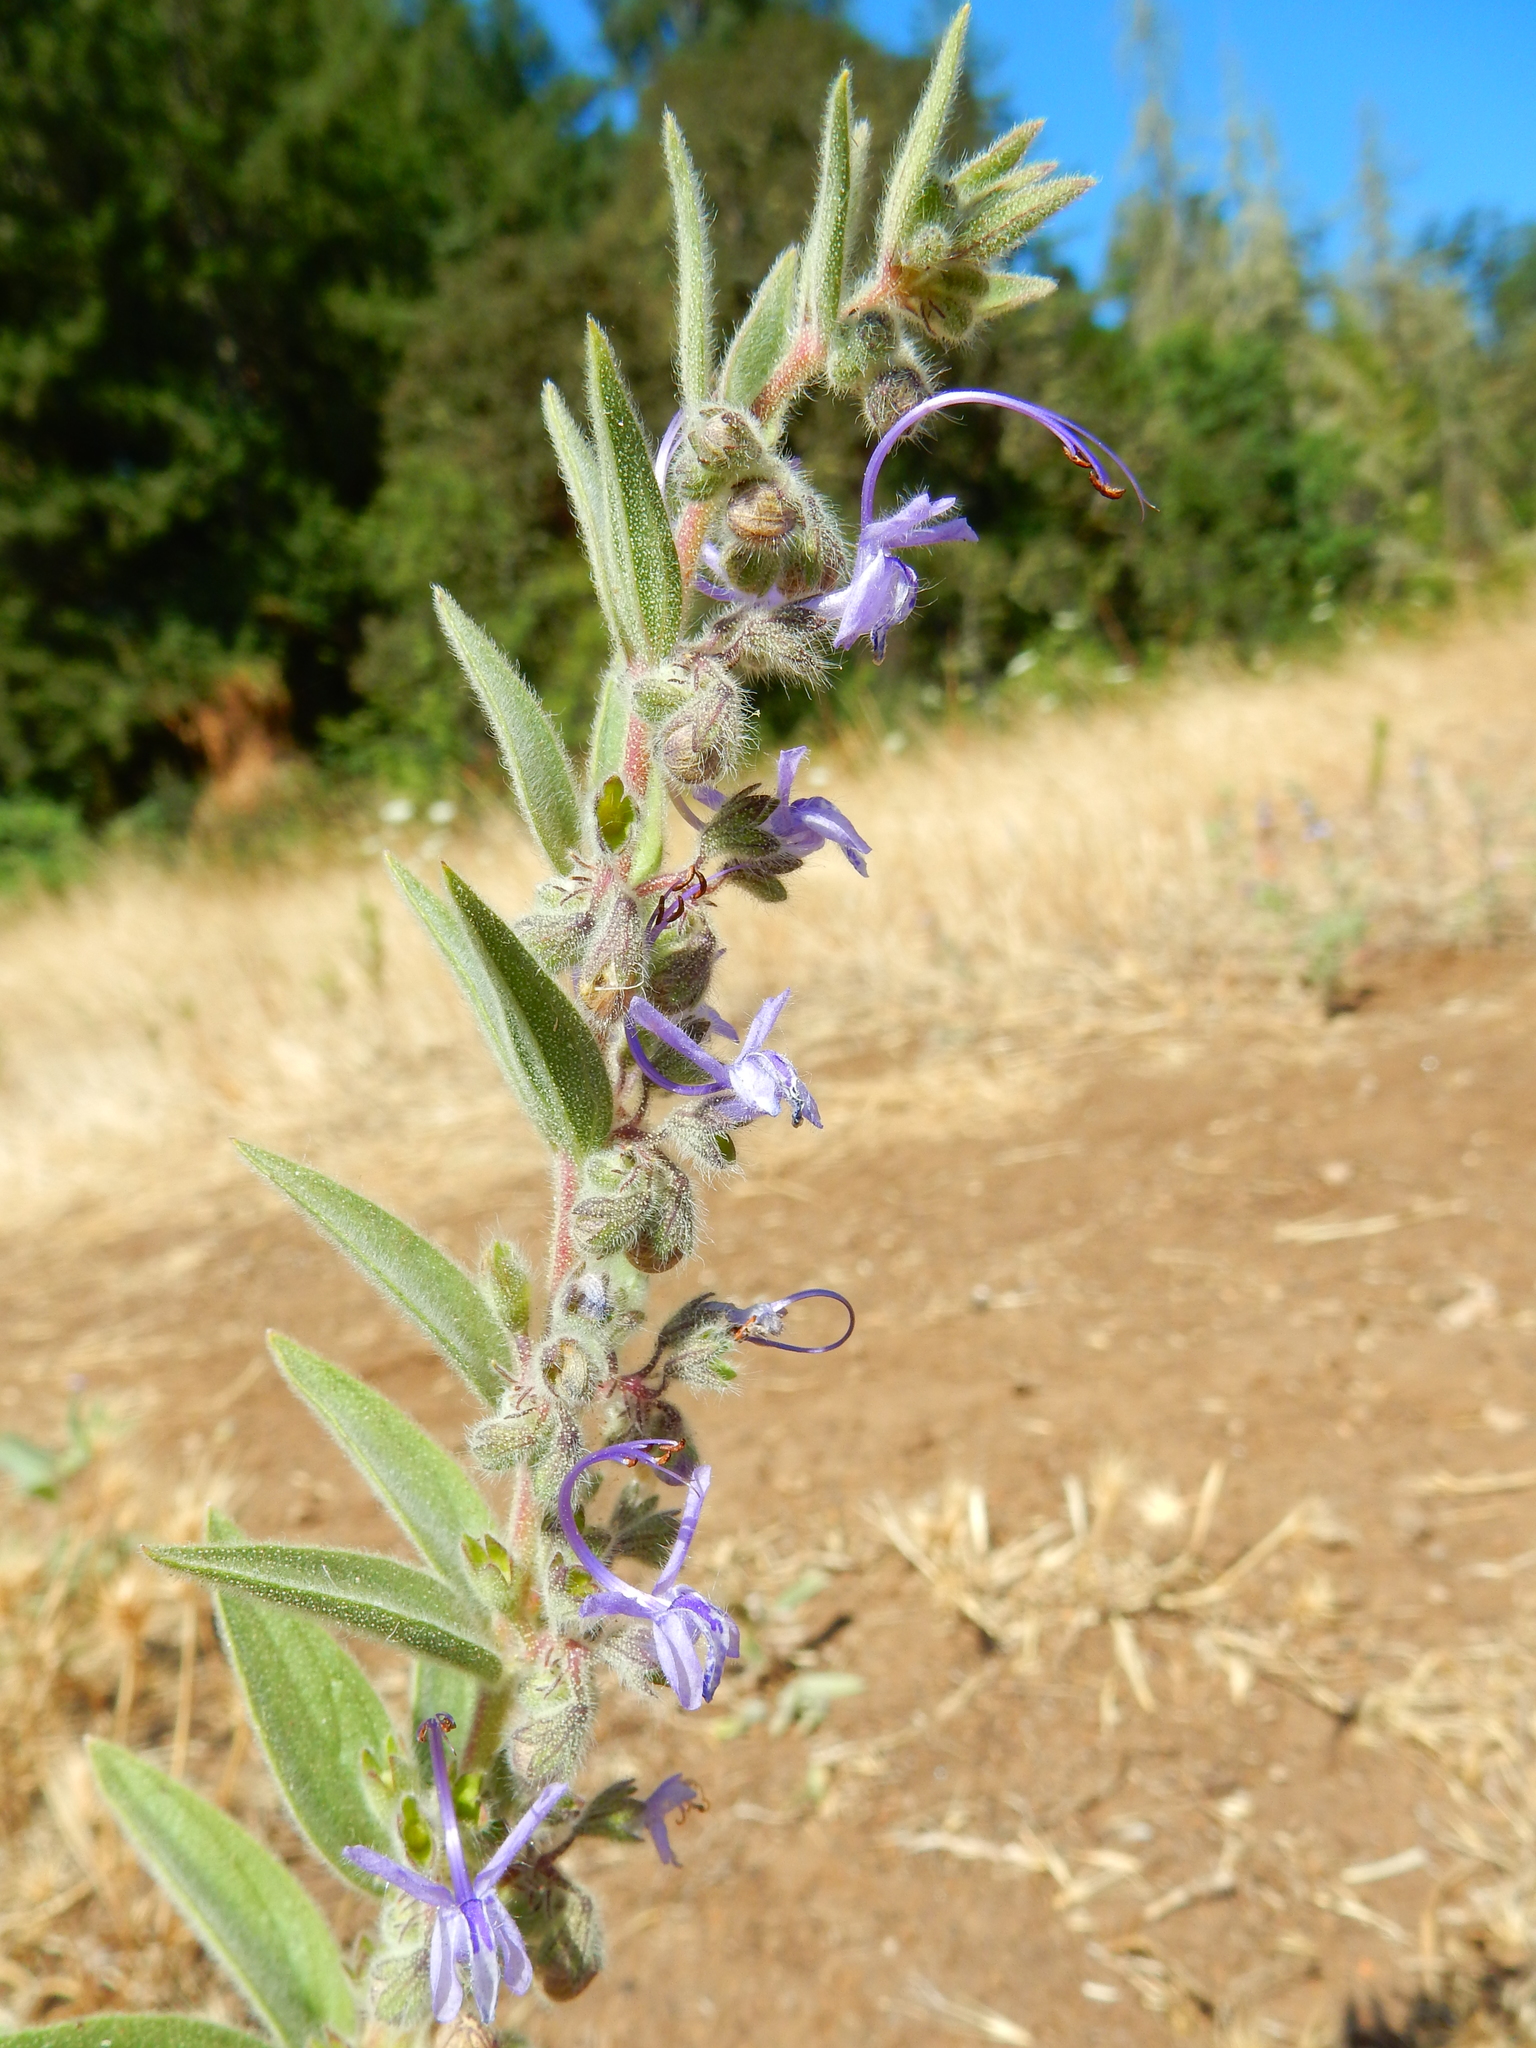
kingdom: Plantae
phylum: Tracheophyta
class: Magnoliopsida
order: Lamiales
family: Lamiaceae
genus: Trichostema
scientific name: Trichostema lanceolatum
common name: Vinegar-weed
